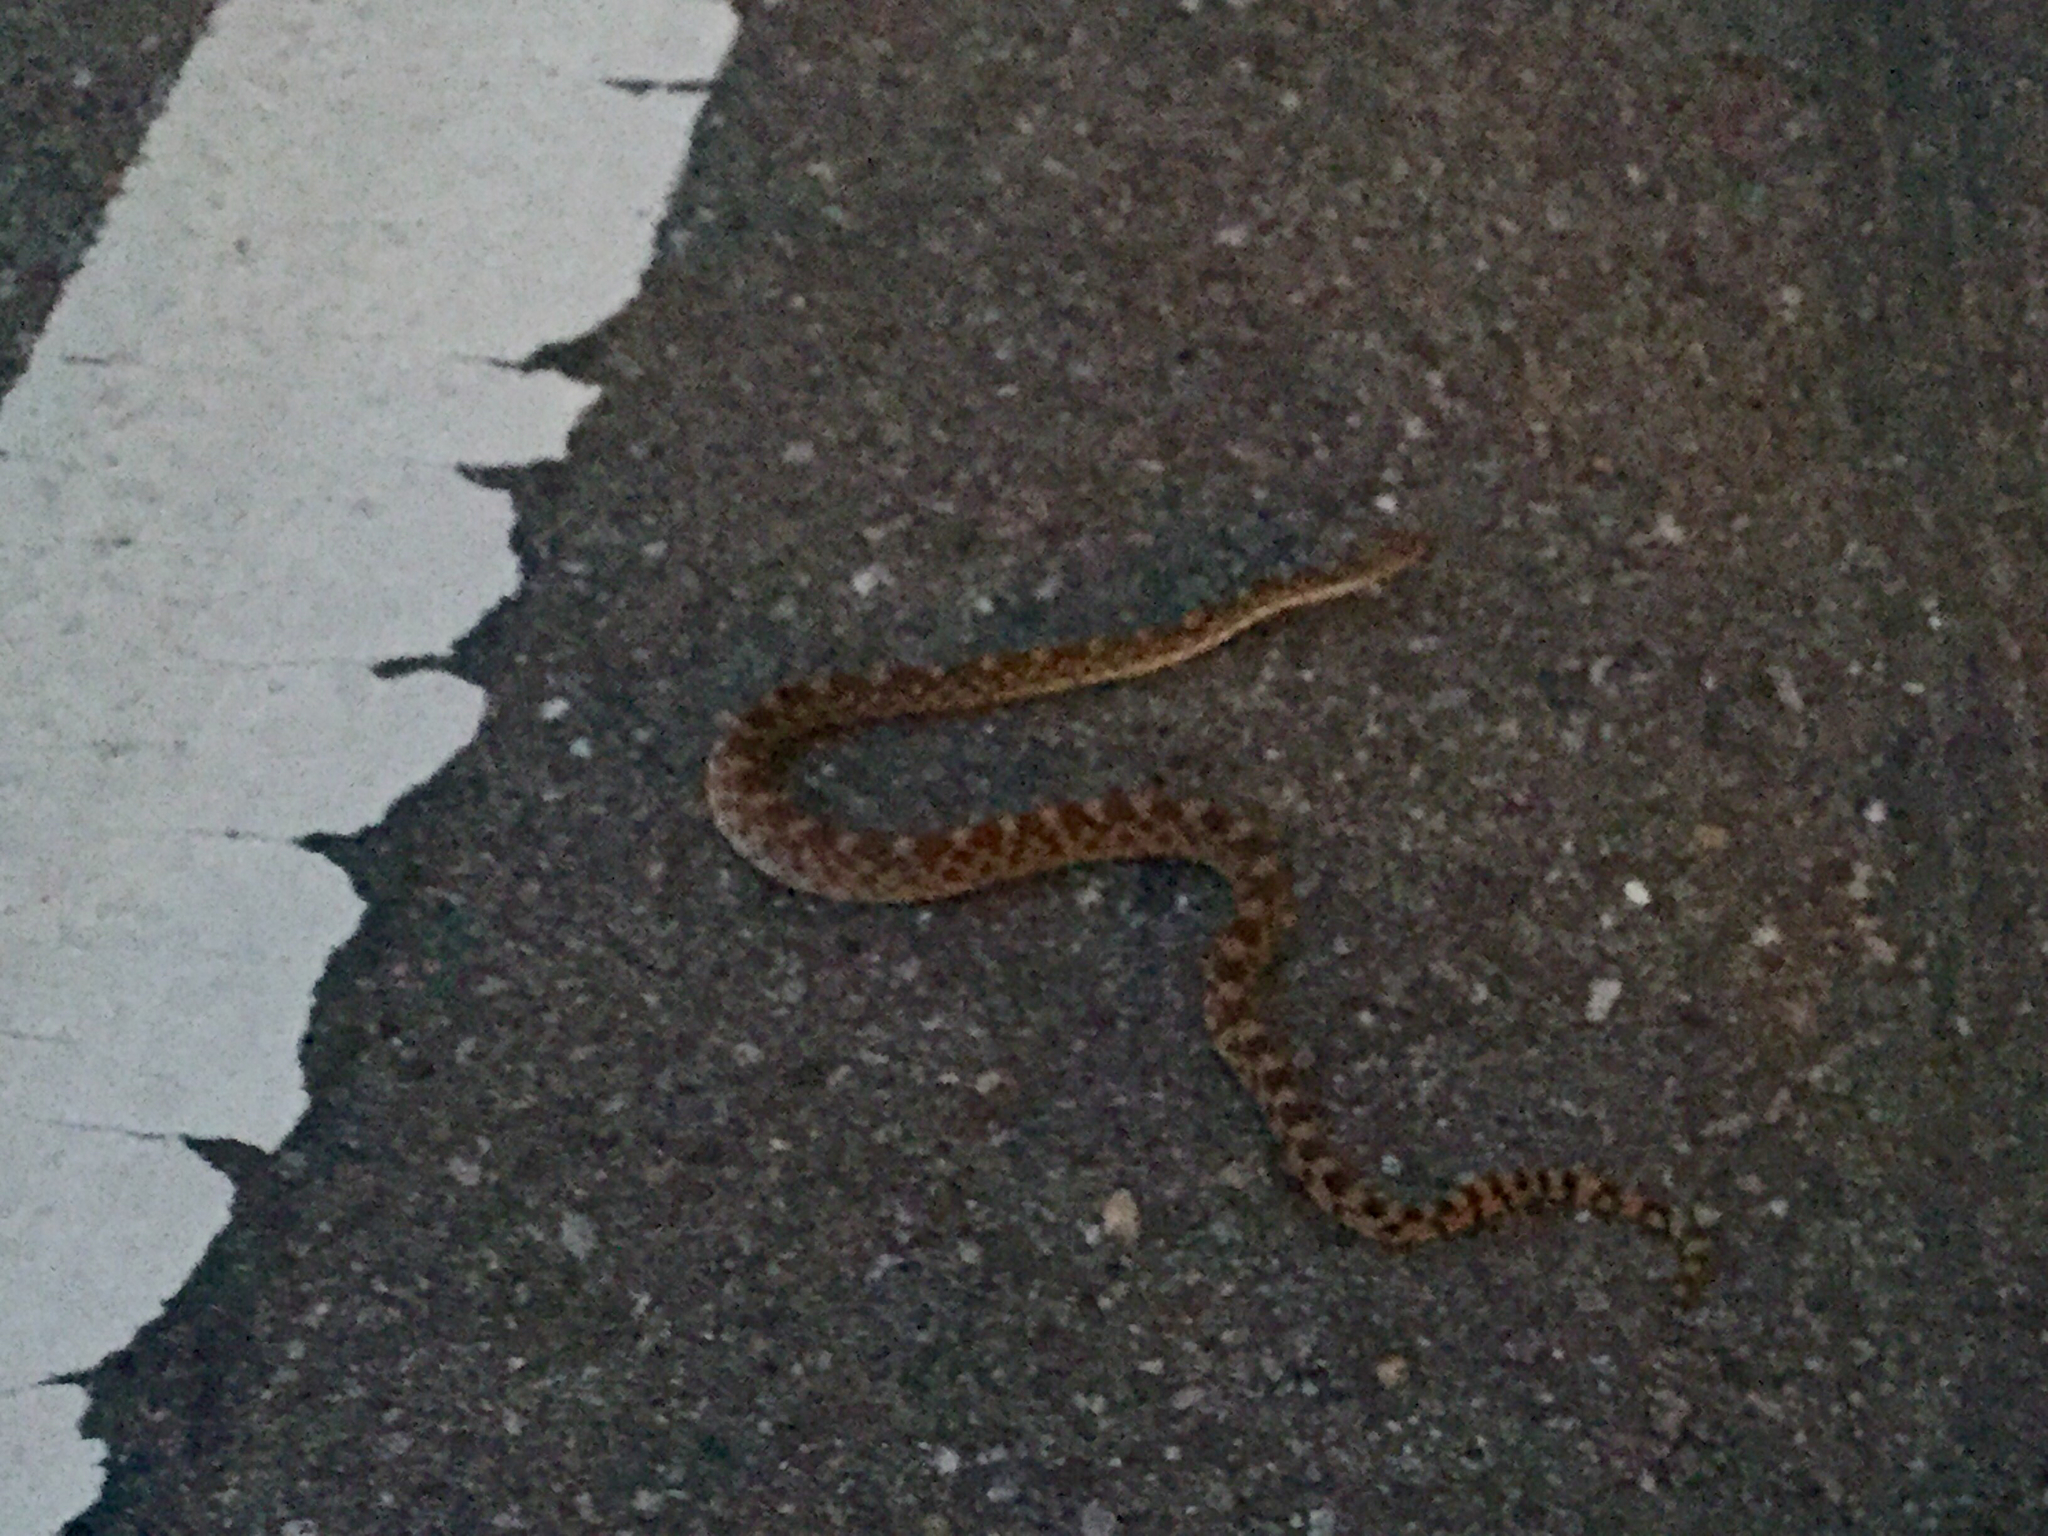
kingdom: Animalia
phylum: Chordata
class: Squamata
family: Colubridae
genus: Pituophis
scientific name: Pituophis catenifer
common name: Gopher snake
